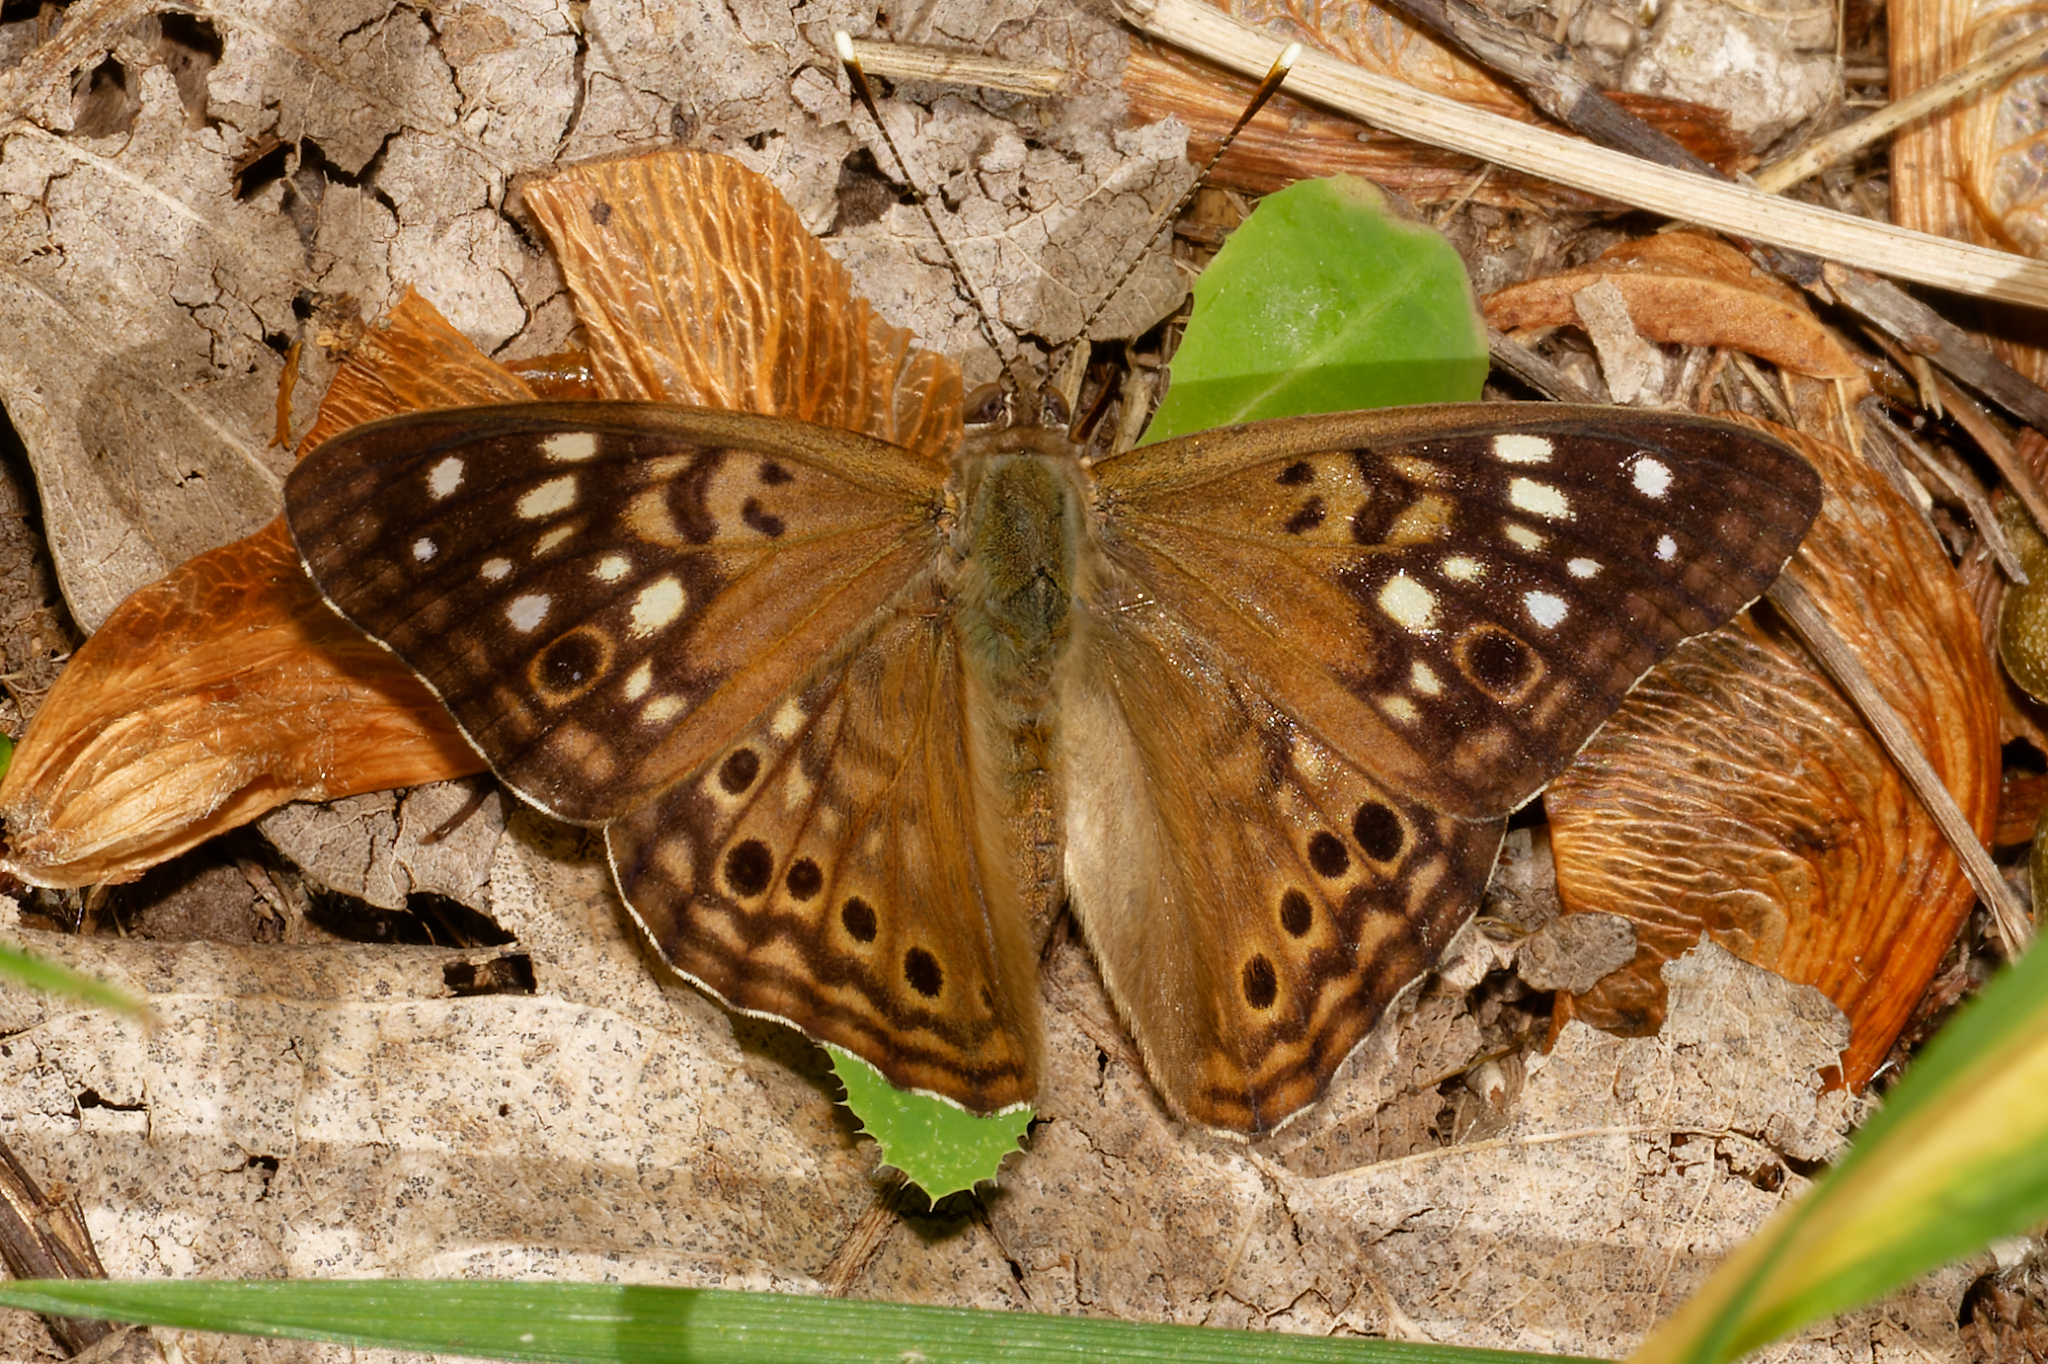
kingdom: Animalia
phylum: Arthropoda
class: Insecta
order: Lepidoptera
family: Nymphalidae
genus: Asterocampa
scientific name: Asterocampa celtis
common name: Hackberry emperor
